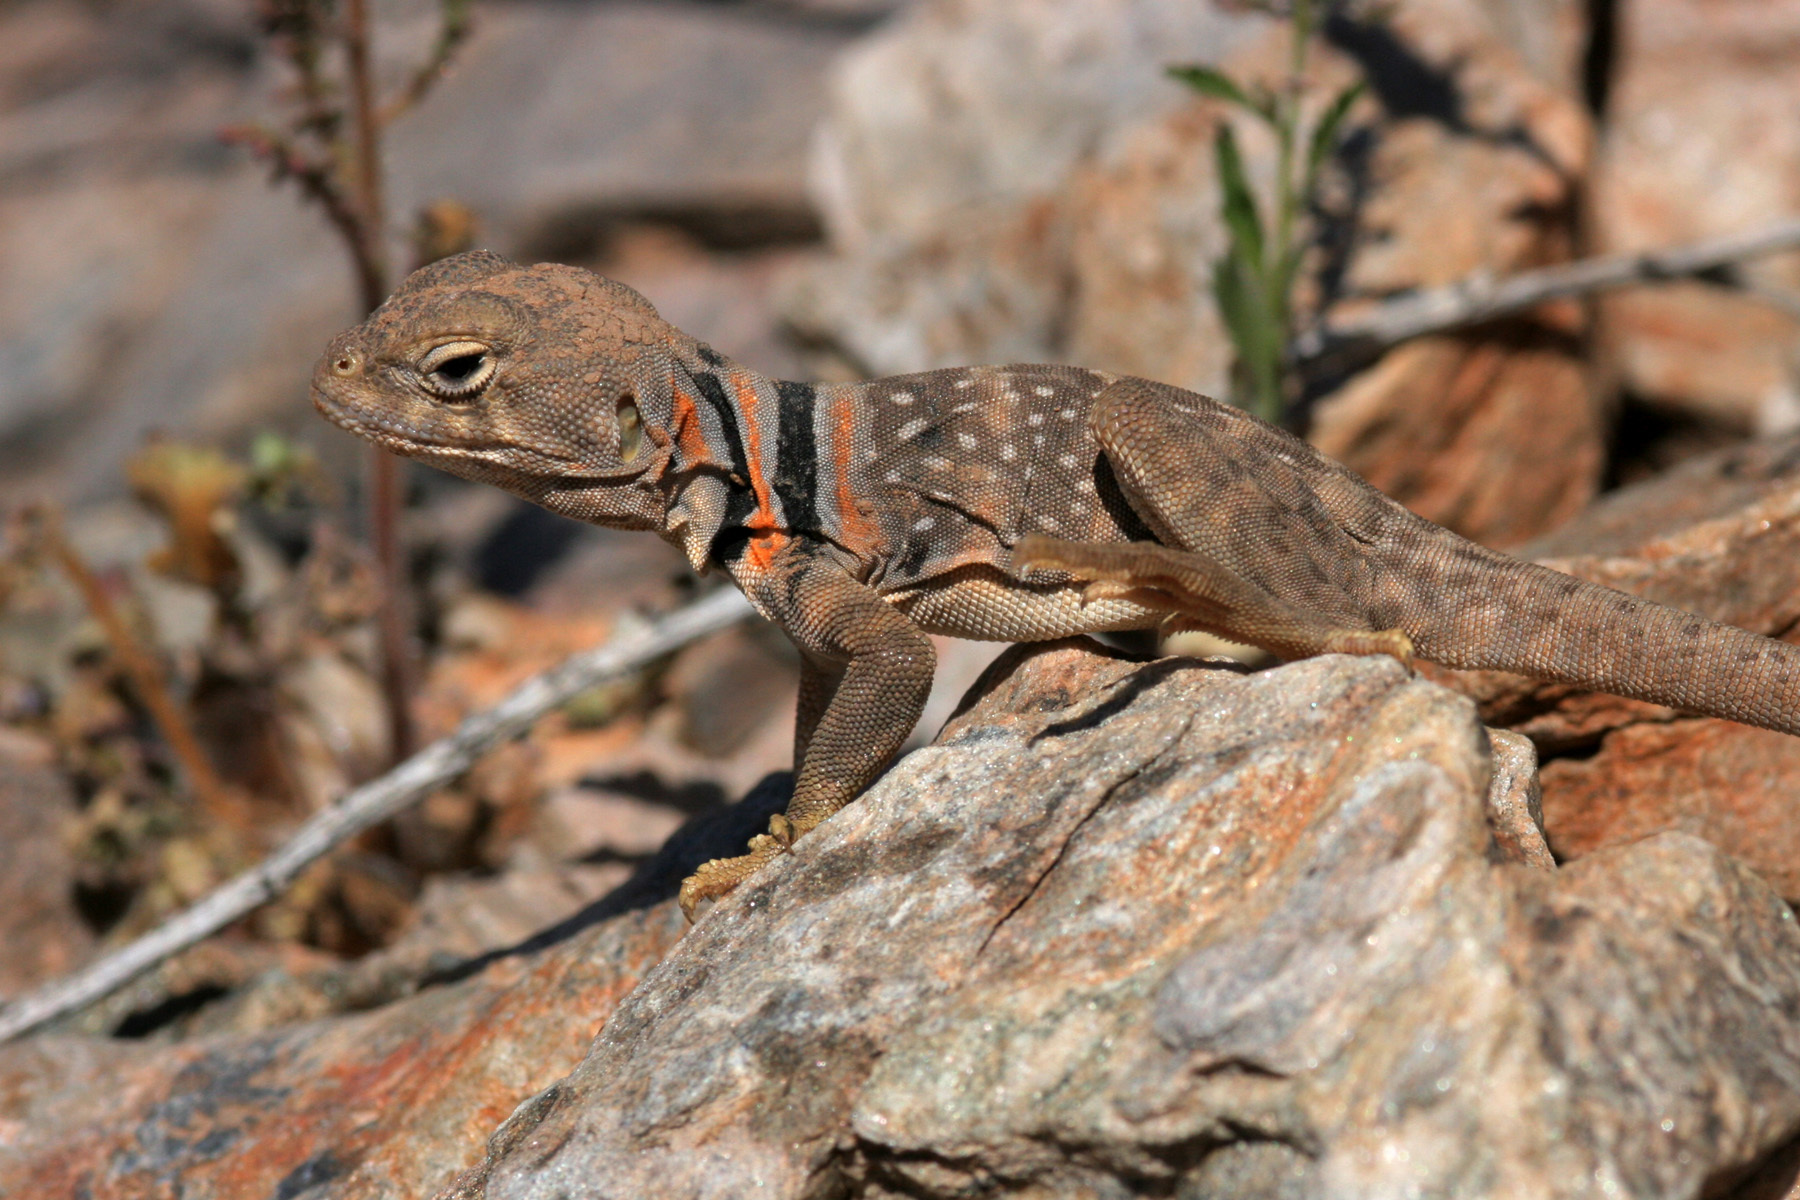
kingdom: Animalia
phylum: Chordata
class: Squamata
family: Crotaphytidae
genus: Crotaphytus
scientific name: Crotaphytus nebrius
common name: Sonoran collared lizard
